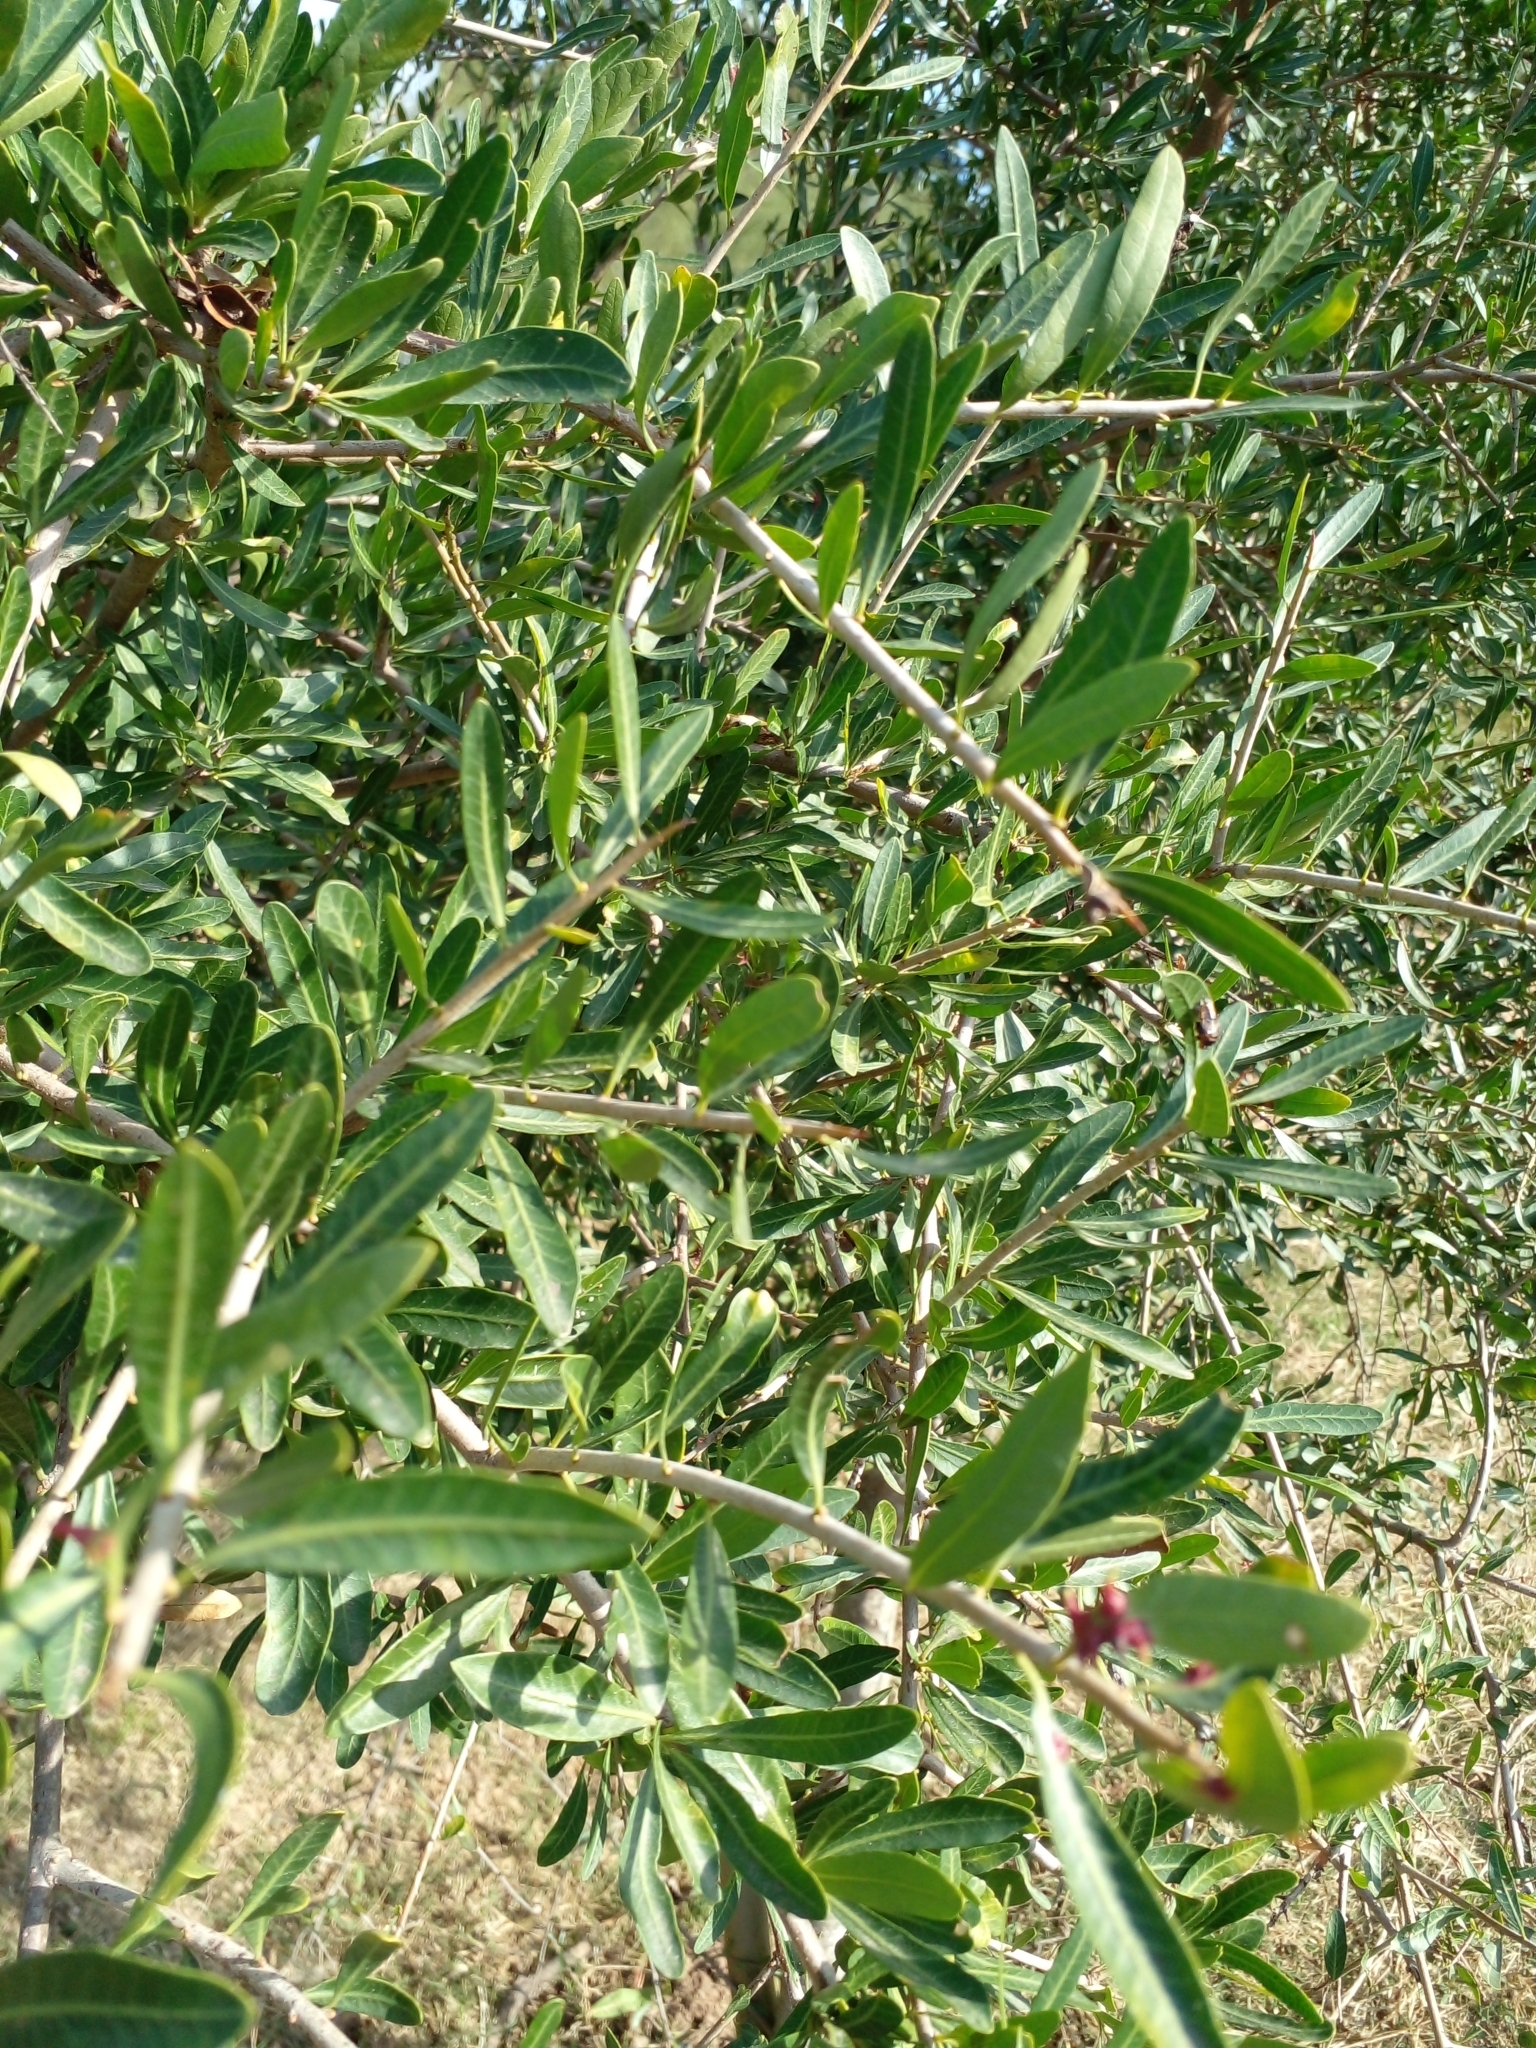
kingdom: Plantae
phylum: Tracheophyta
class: Magnoliopsida
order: Sapindales
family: Anacardiaceae
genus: Schinus
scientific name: Schinus longifolia
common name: Longleaf peppertree
